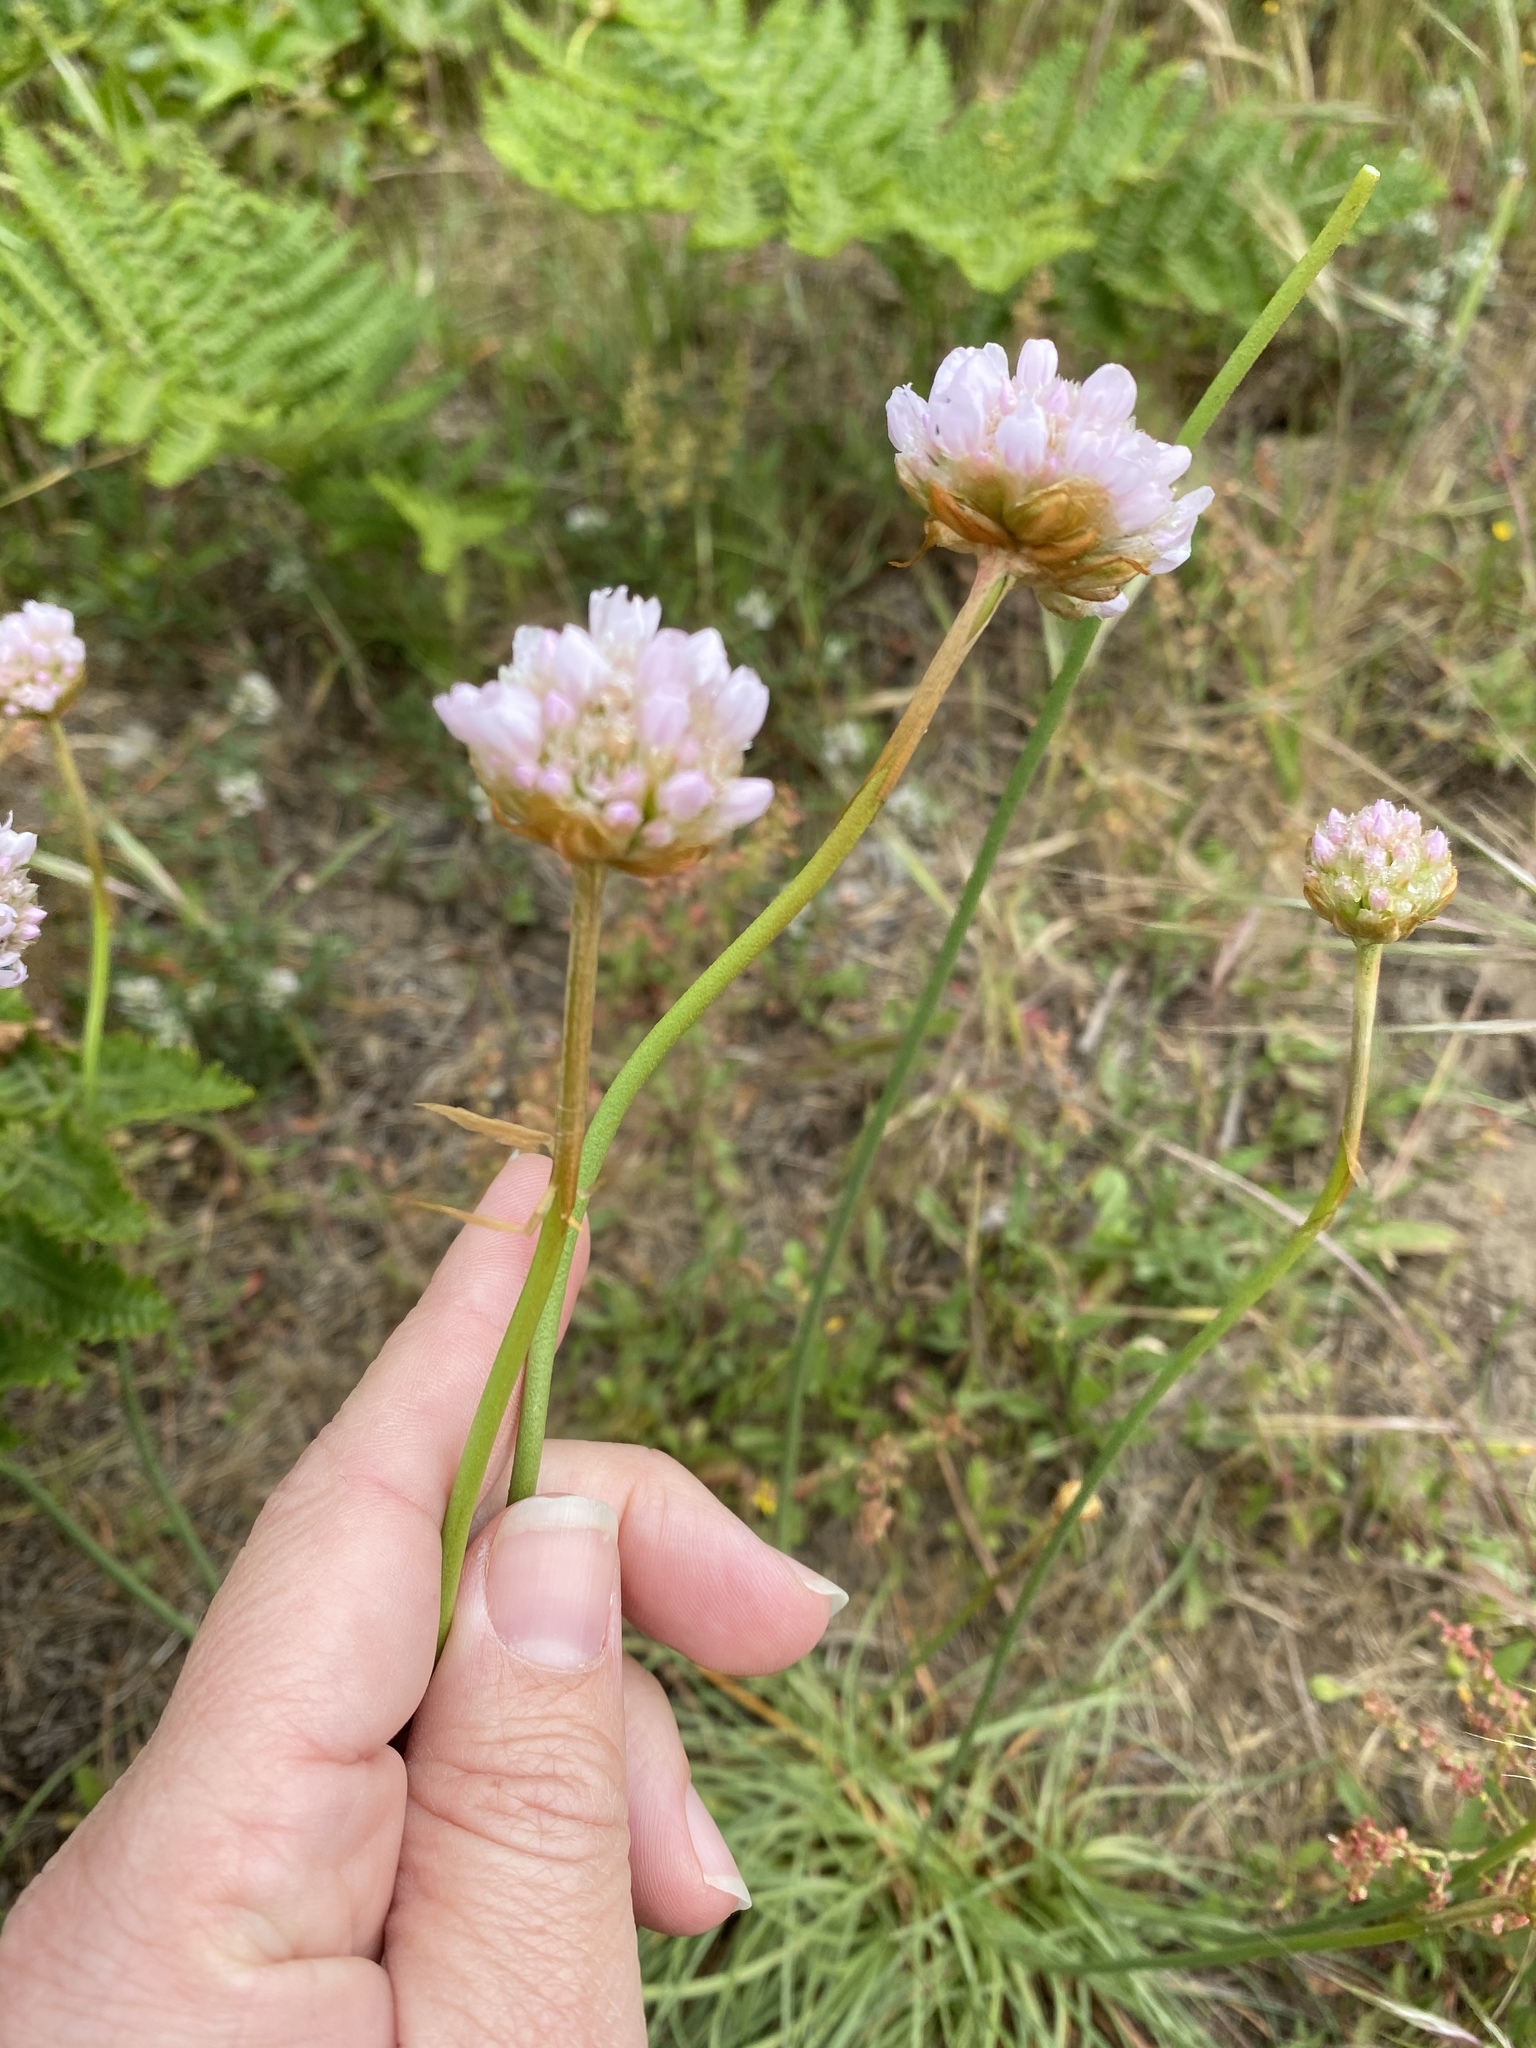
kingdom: Plantae
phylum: Tracheophyta
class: Magnoliopsida
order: Caryophyllales
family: Plumbaginaceae
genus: Armeria
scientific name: Armeria maritima
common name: Thrift
